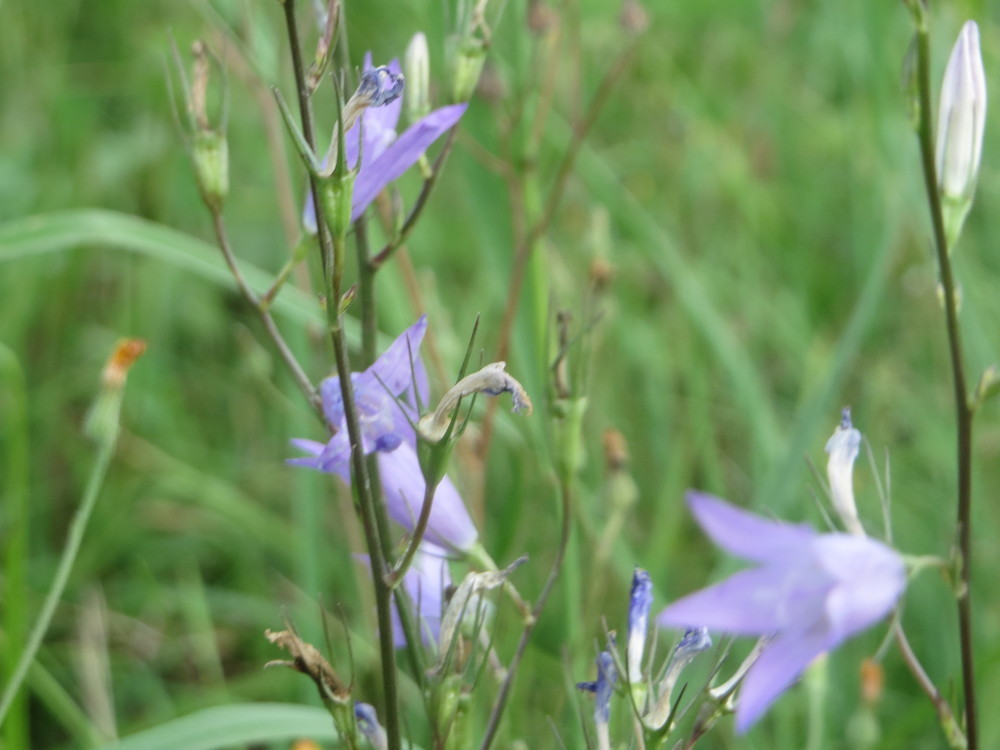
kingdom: Plantae
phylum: Tracheophyta
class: Magnoliopsida
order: Asterales
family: Campanulaceae
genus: Campanula
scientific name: Campanula rapunculus
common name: Rampion bellflower
